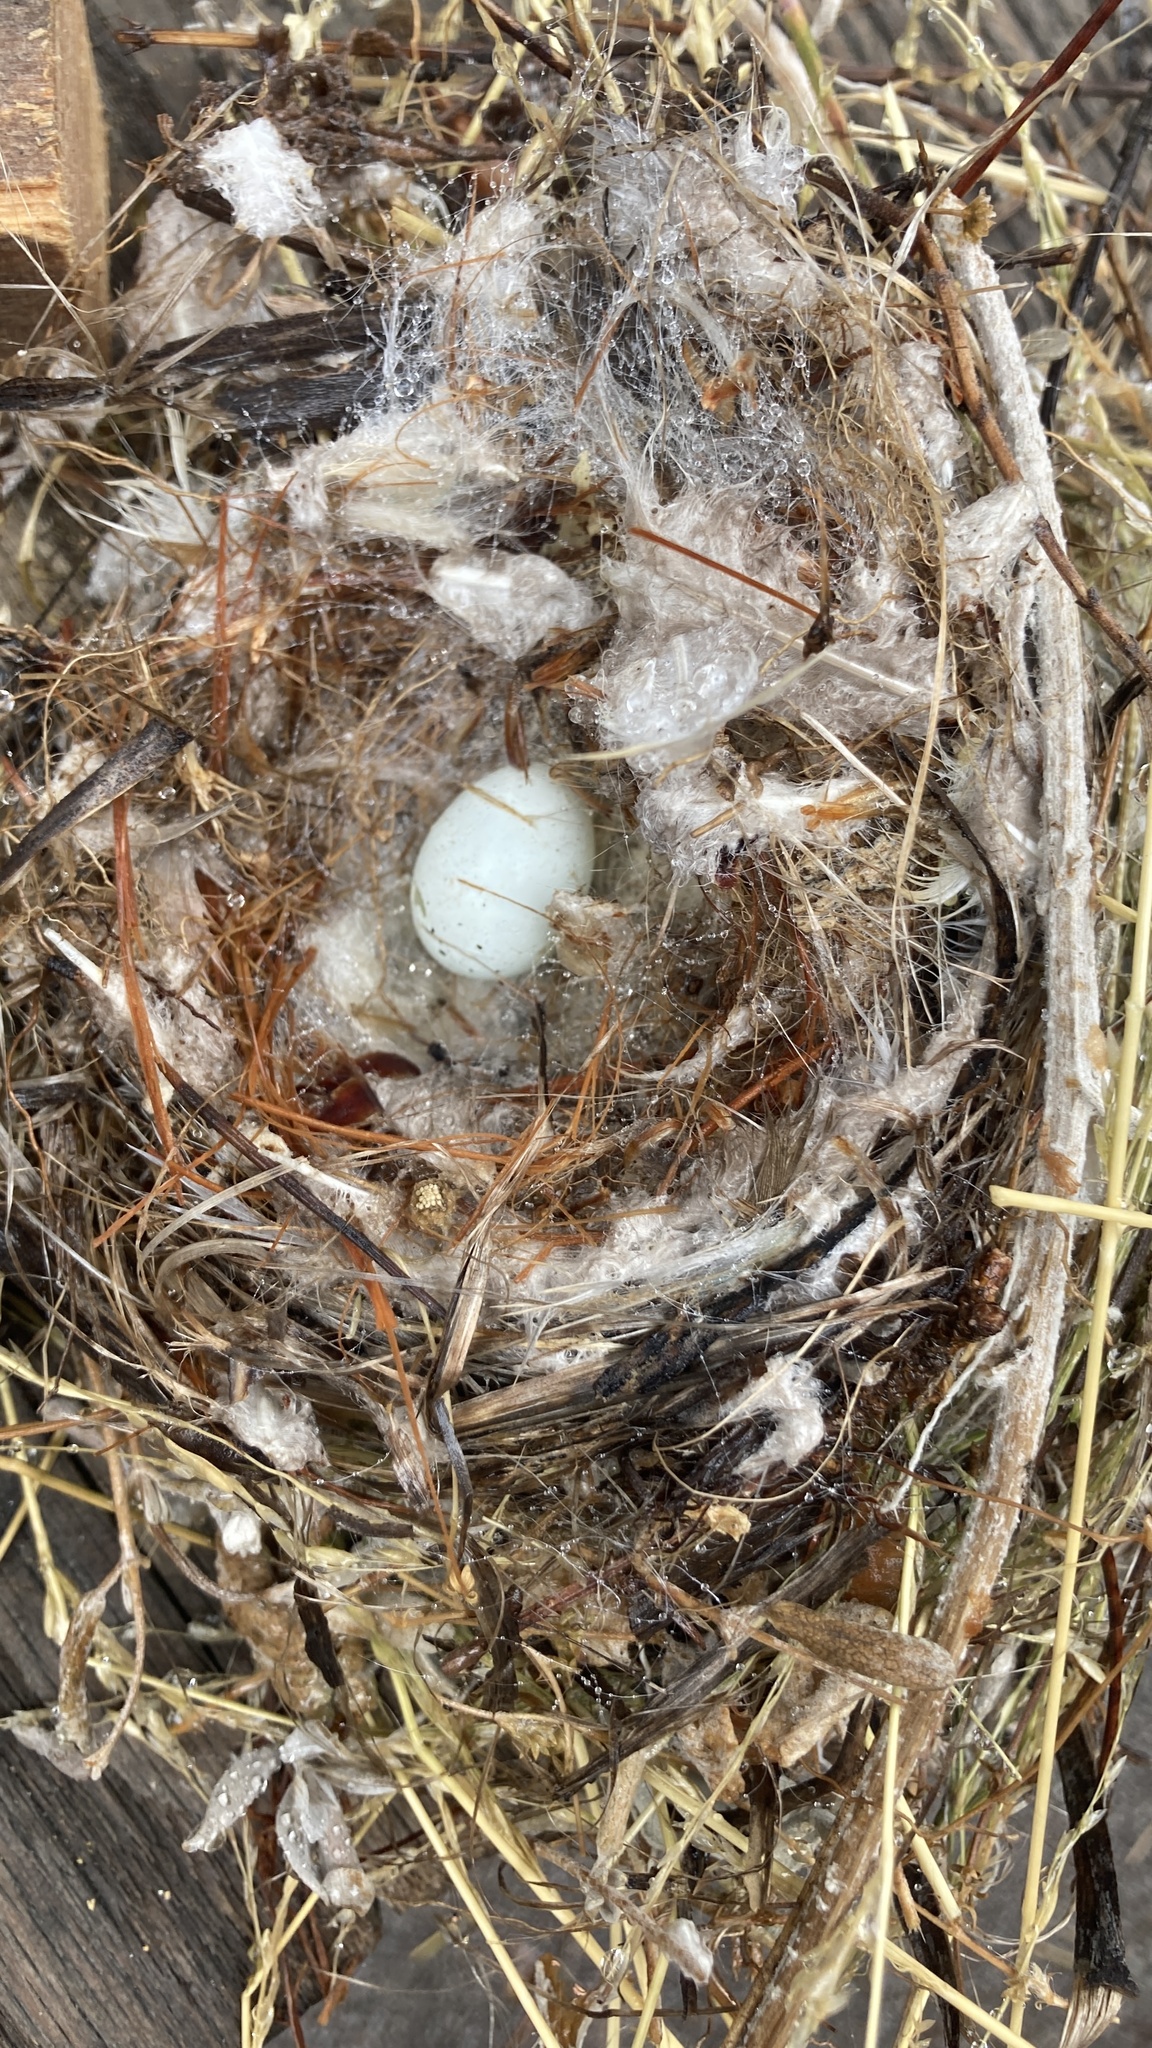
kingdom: Animalia
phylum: Chordata
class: Aves
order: Passeriformes
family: Fringillidae
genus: Haemorhous
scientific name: Haemorhous mexicanus
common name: House finch
